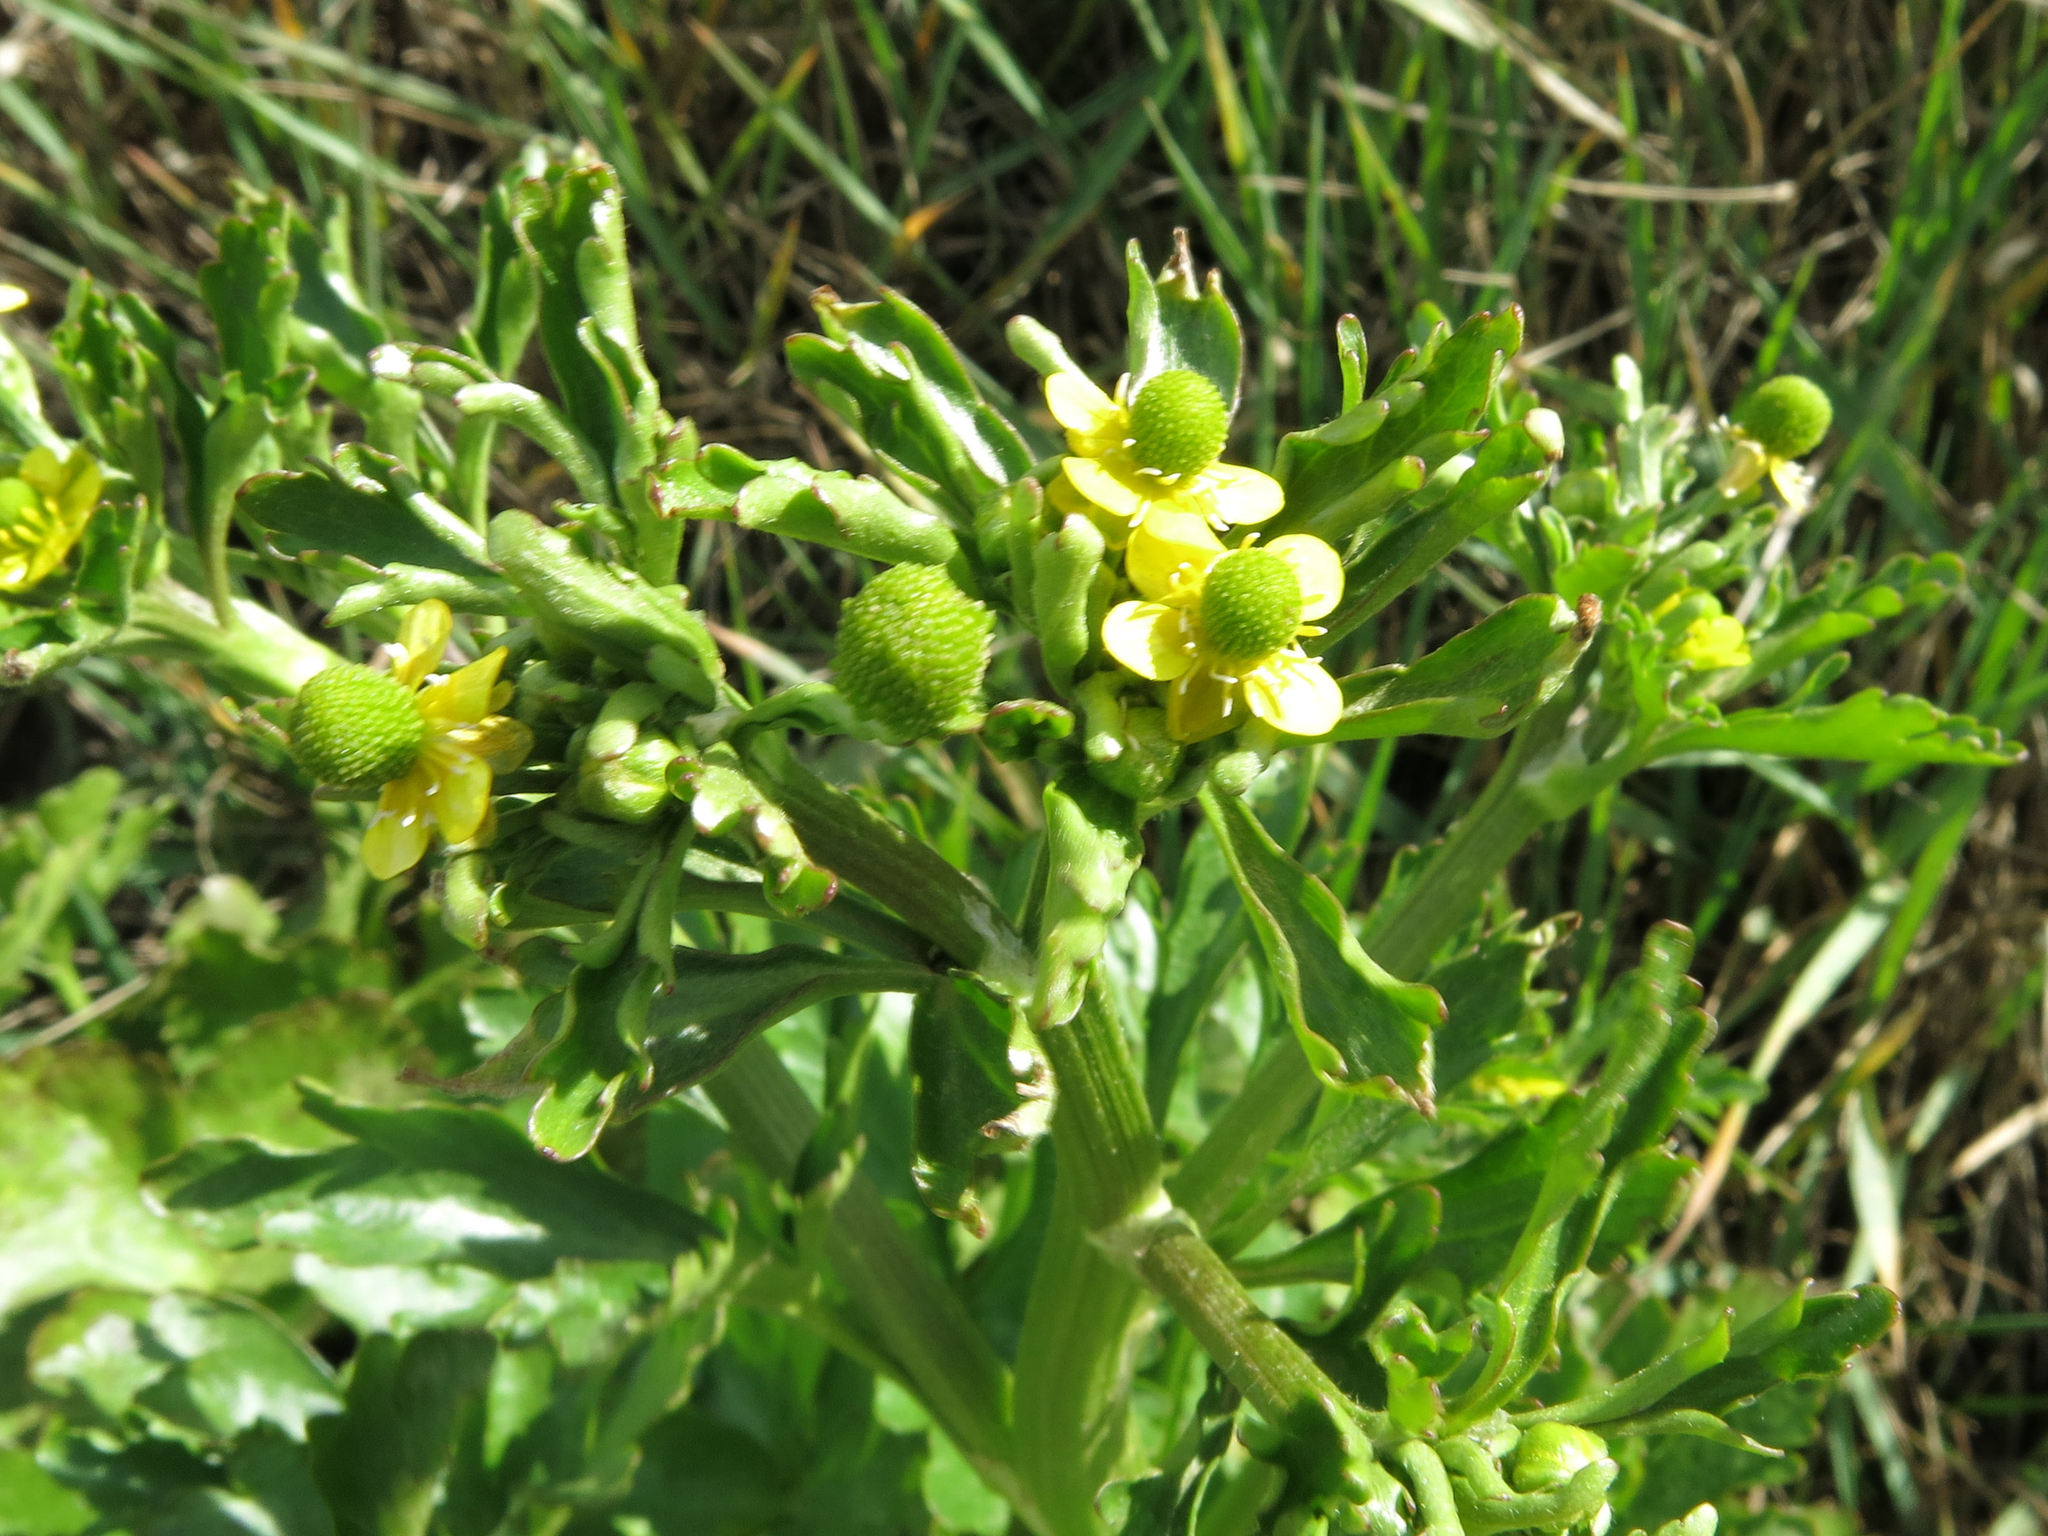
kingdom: Plantae
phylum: Tracheophyta
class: Magnoliopsida
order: Ranunculales
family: Ranunculaceae
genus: Ranunculus
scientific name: Ranunculus sceleratus
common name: Celery-leaved buttercup
